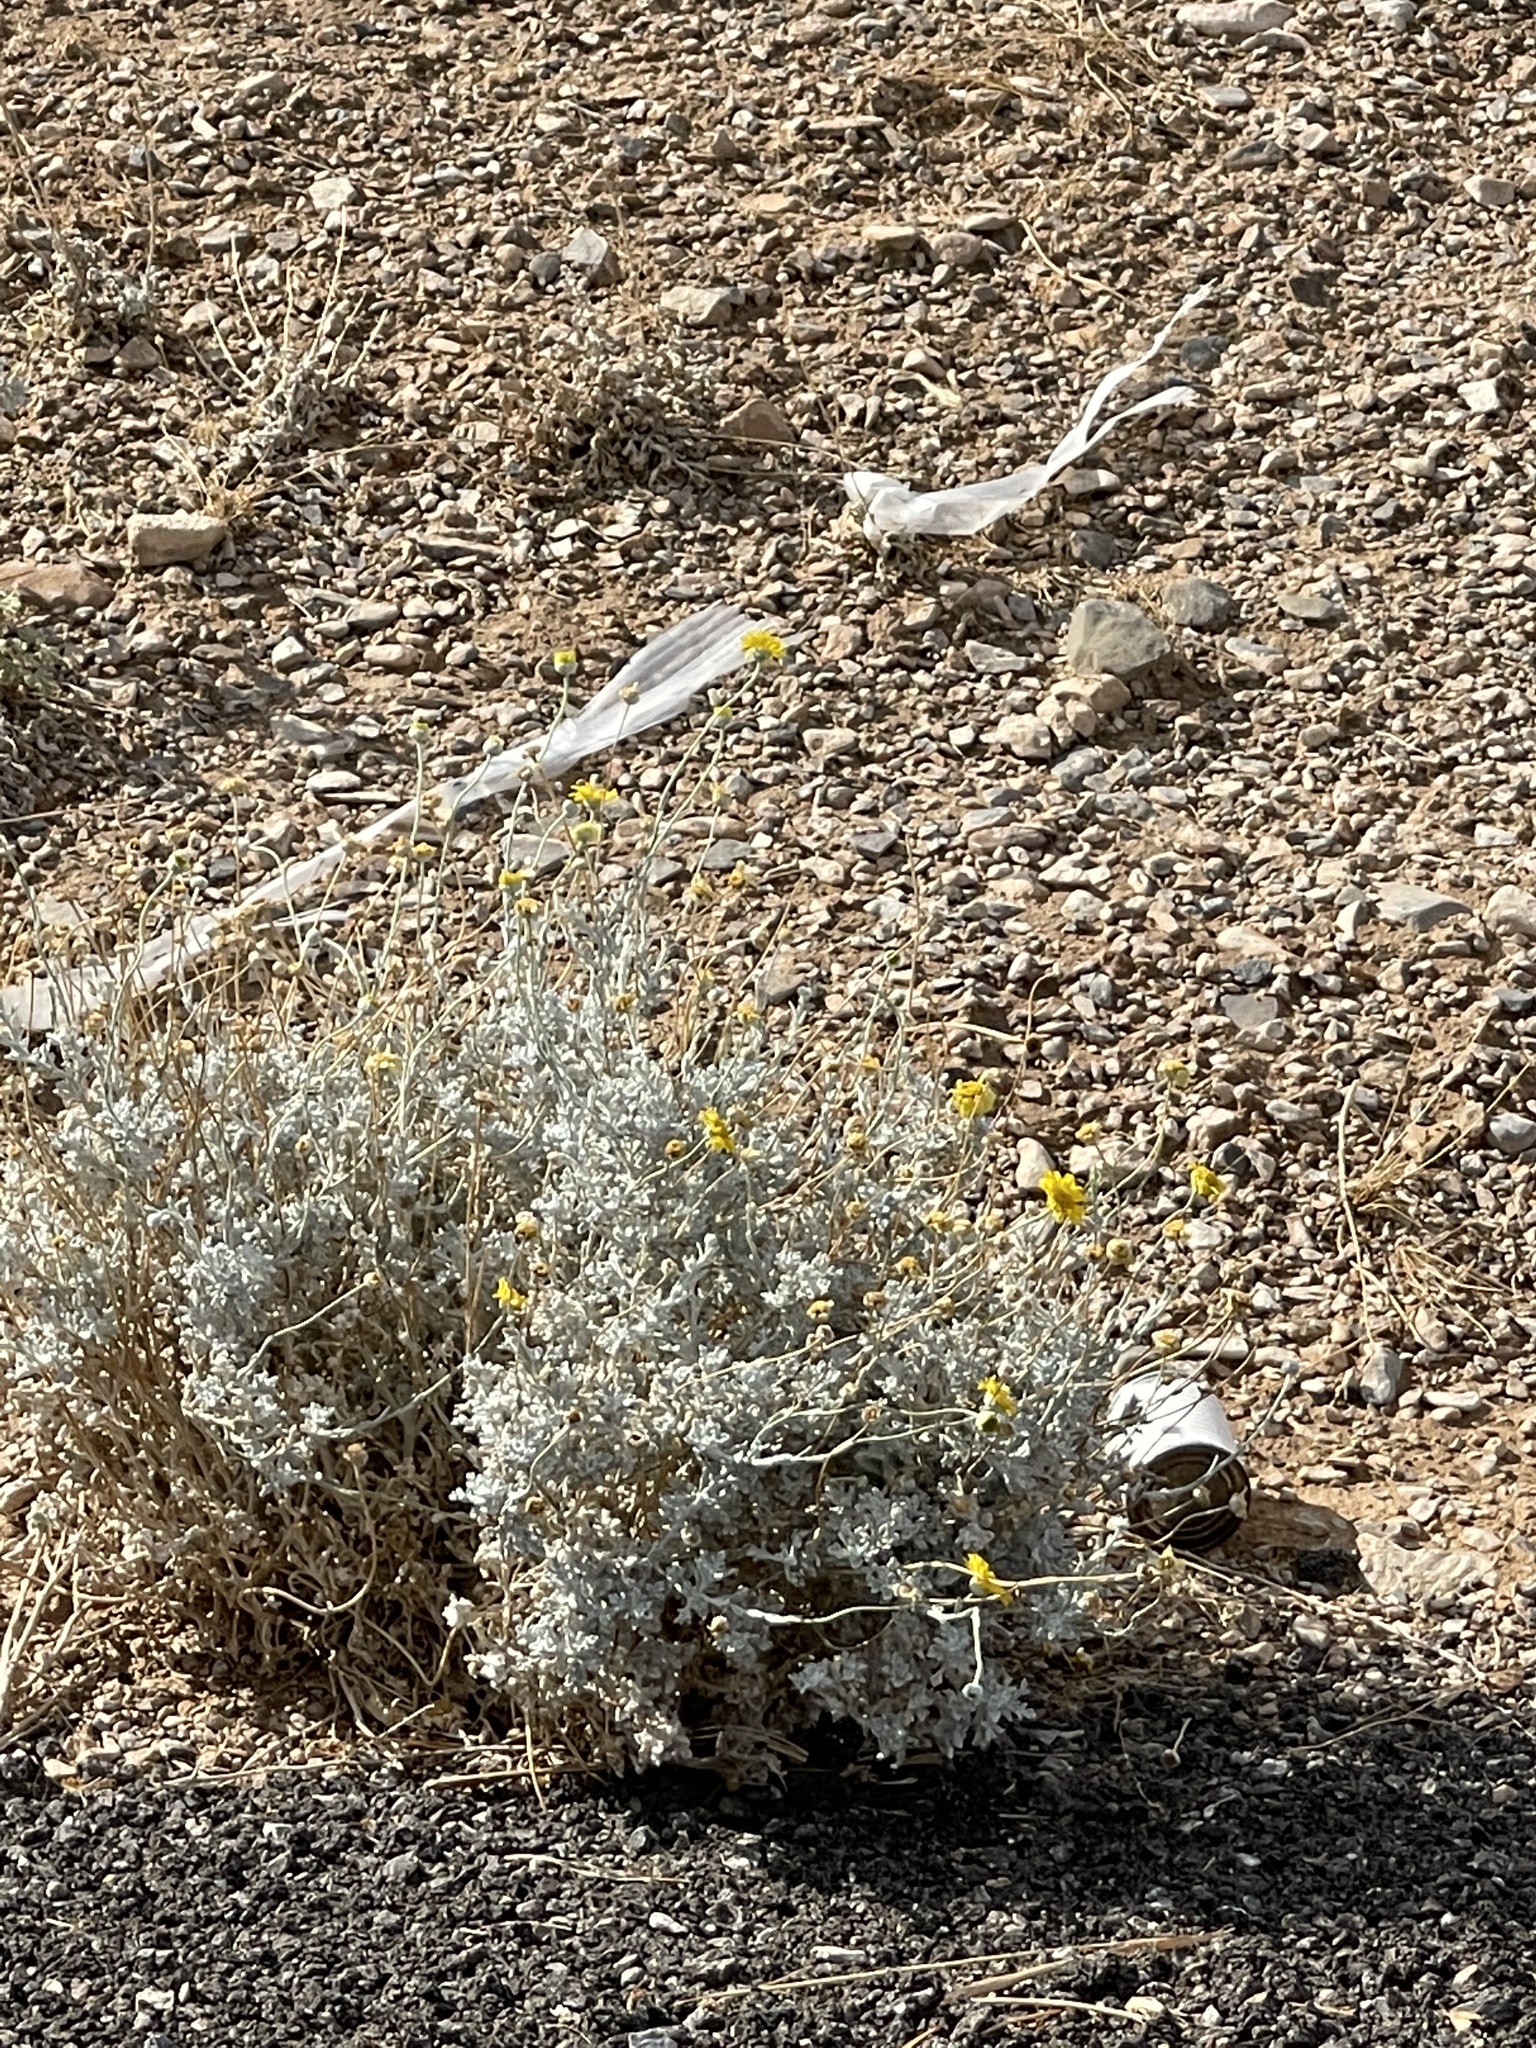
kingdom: Plantae
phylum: Tracheophyta
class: Magnoliopsida
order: Asterales
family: Asteraceae
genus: Baileya
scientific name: Baileya multiradiata
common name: Desert-marigold
